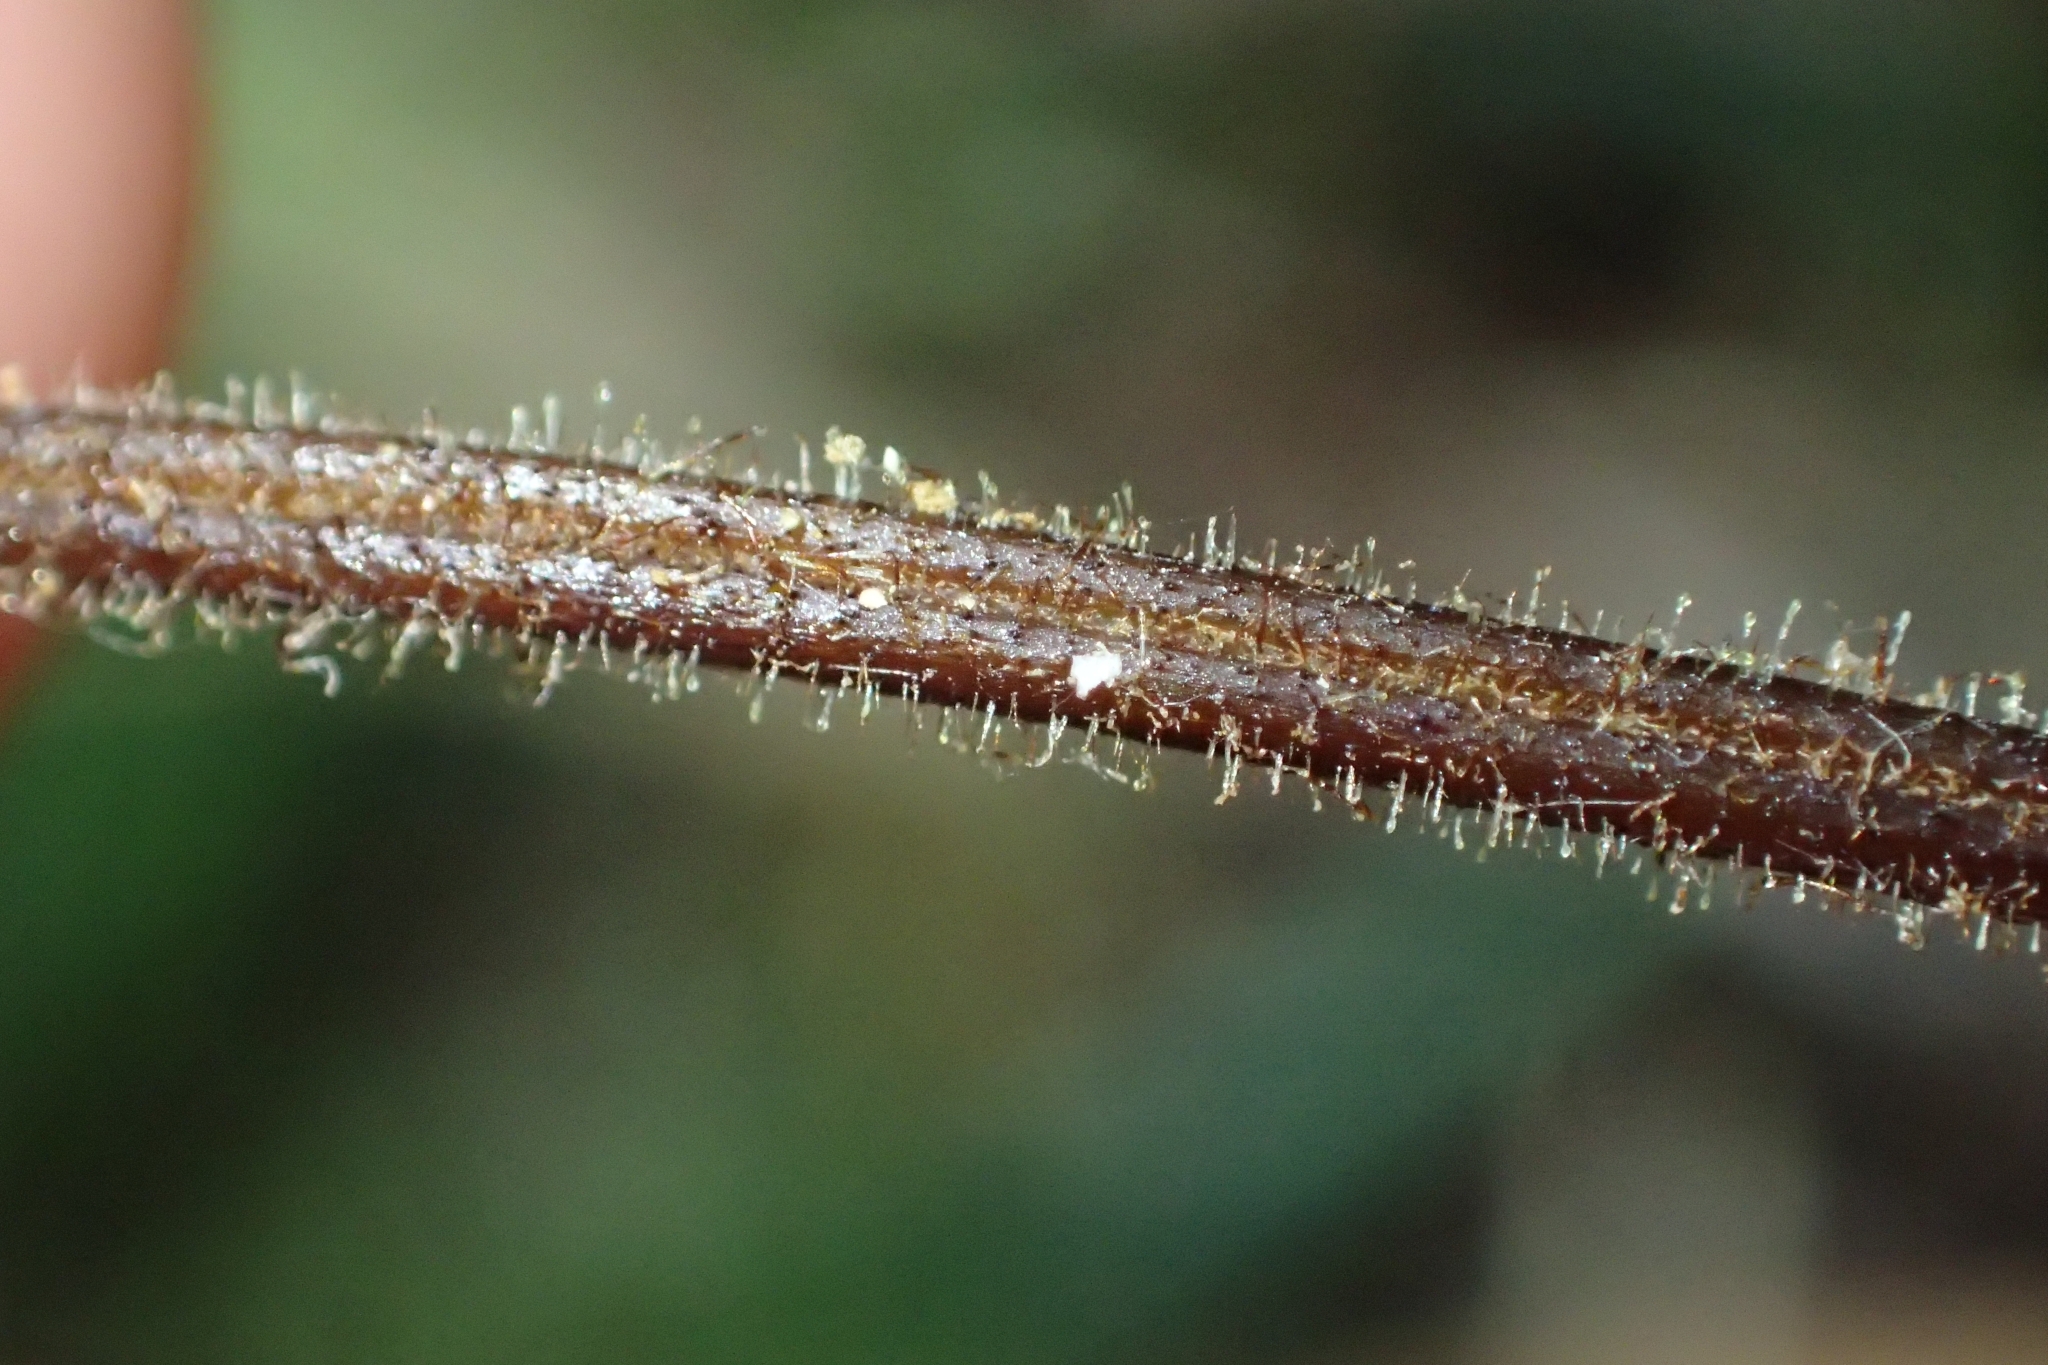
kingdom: Plantae
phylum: Tracheophyta
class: Polypodiopsida
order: Polypodiales
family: Dennstaedtiaceae
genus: Hypolepis
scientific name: Hypolepis rugosula
